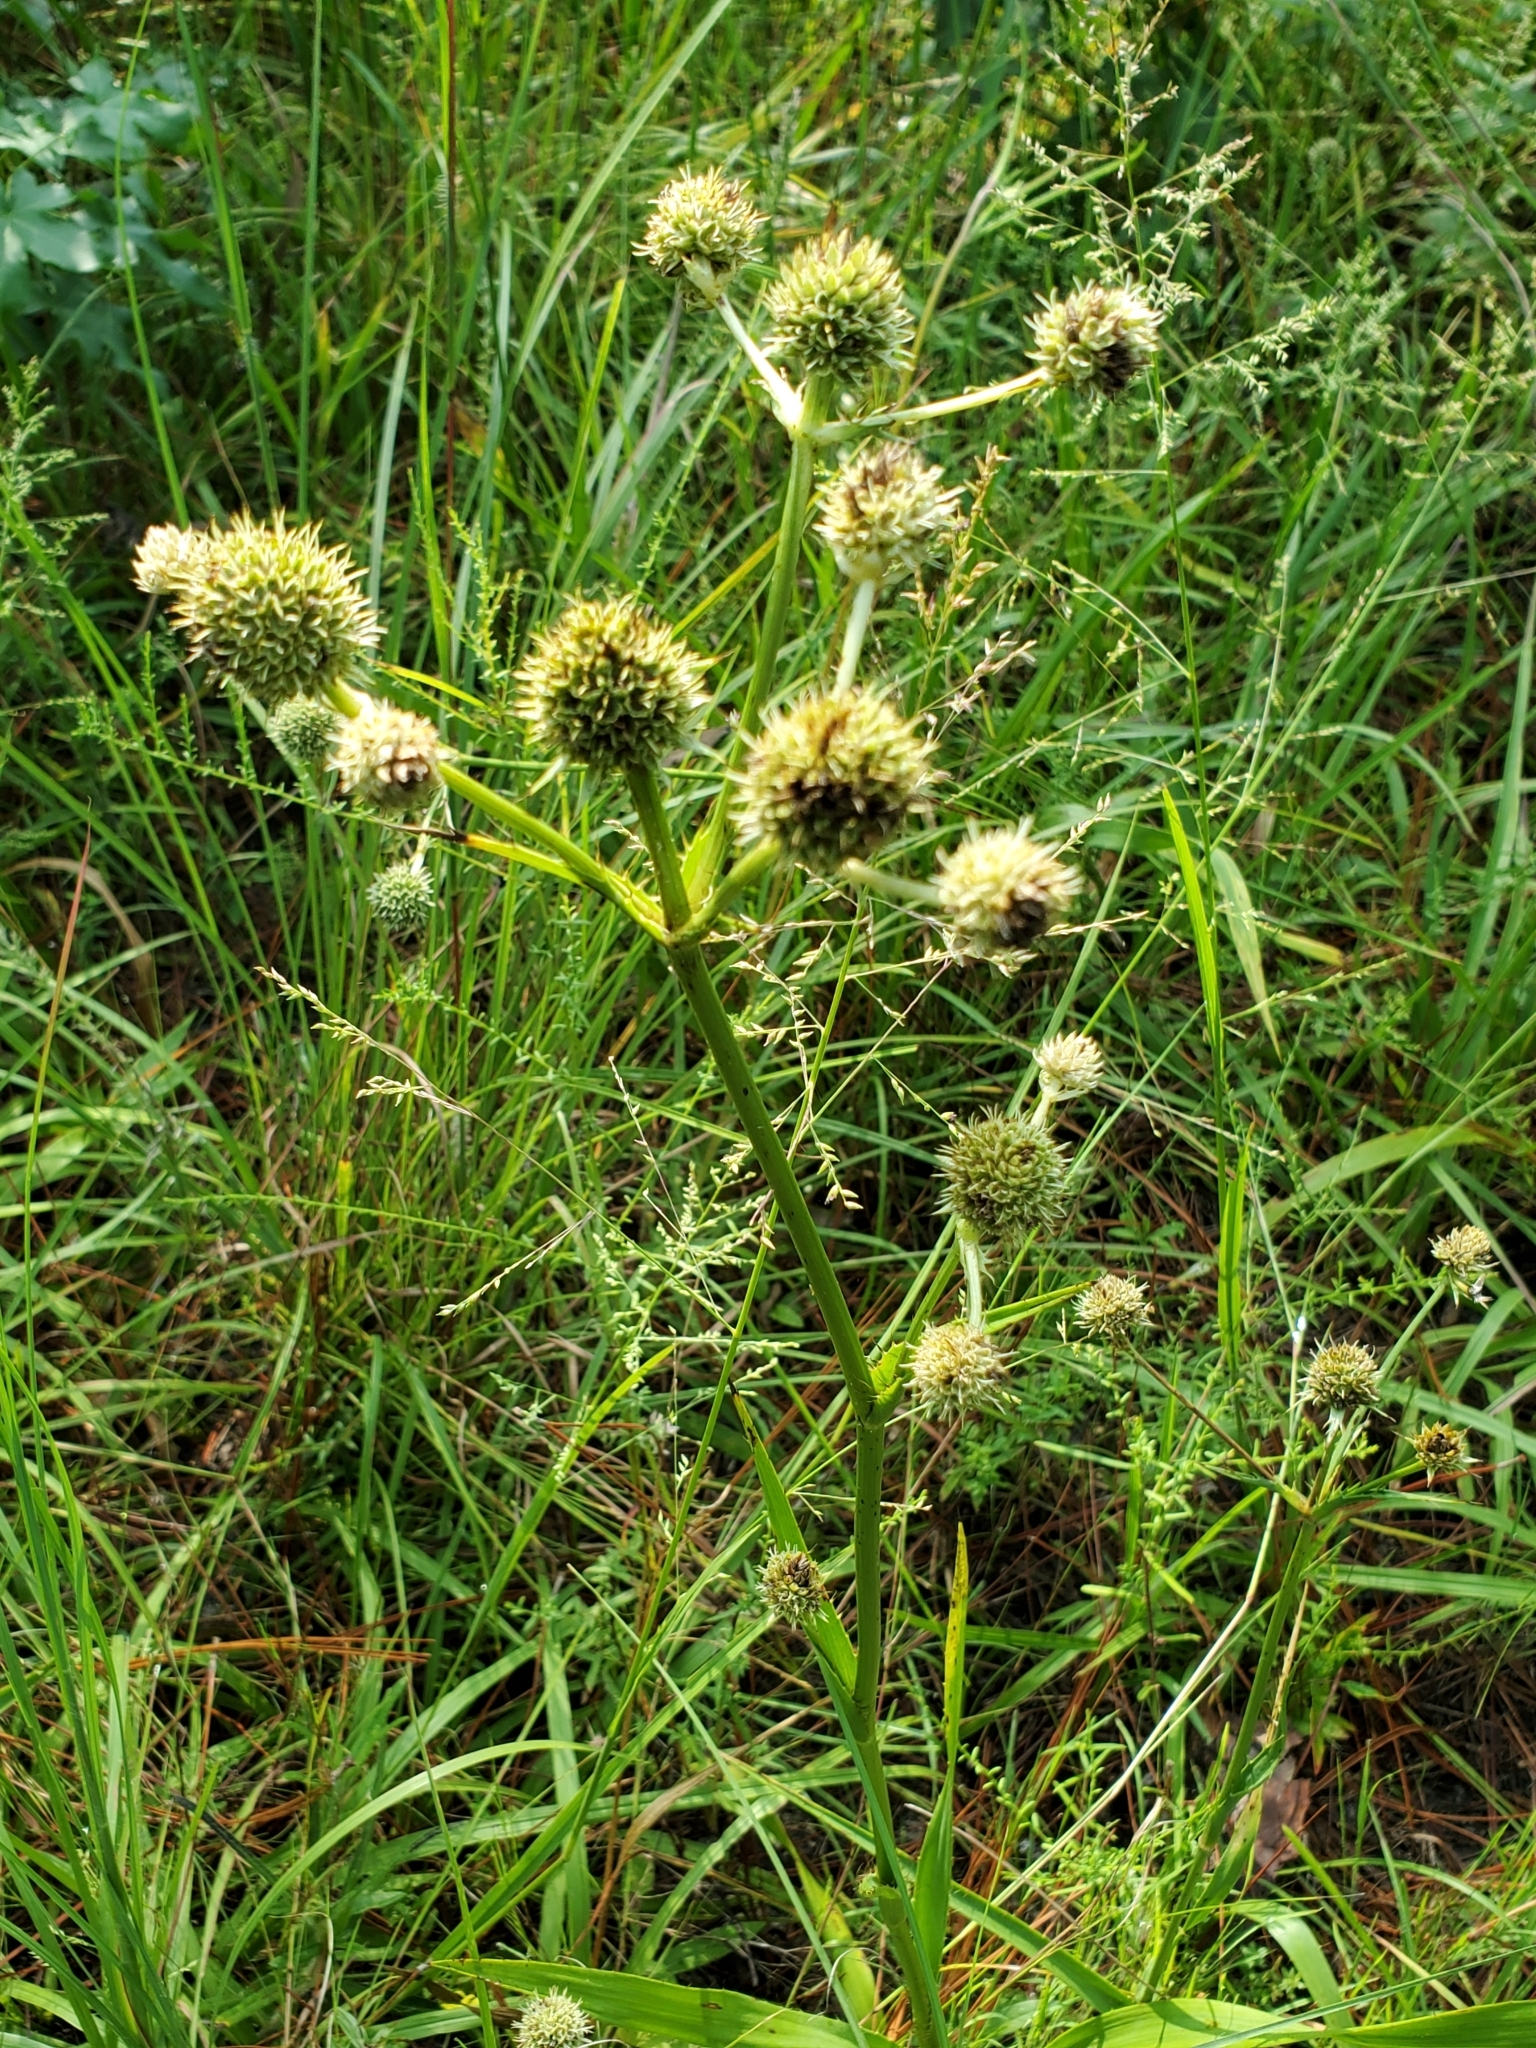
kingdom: Plantae
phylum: Tracheophyta
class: Magnoliopsida
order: Apiales
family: Apiaceae
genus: Eryngium
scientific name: Eryngium yuccifolium
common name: Button eryngo
